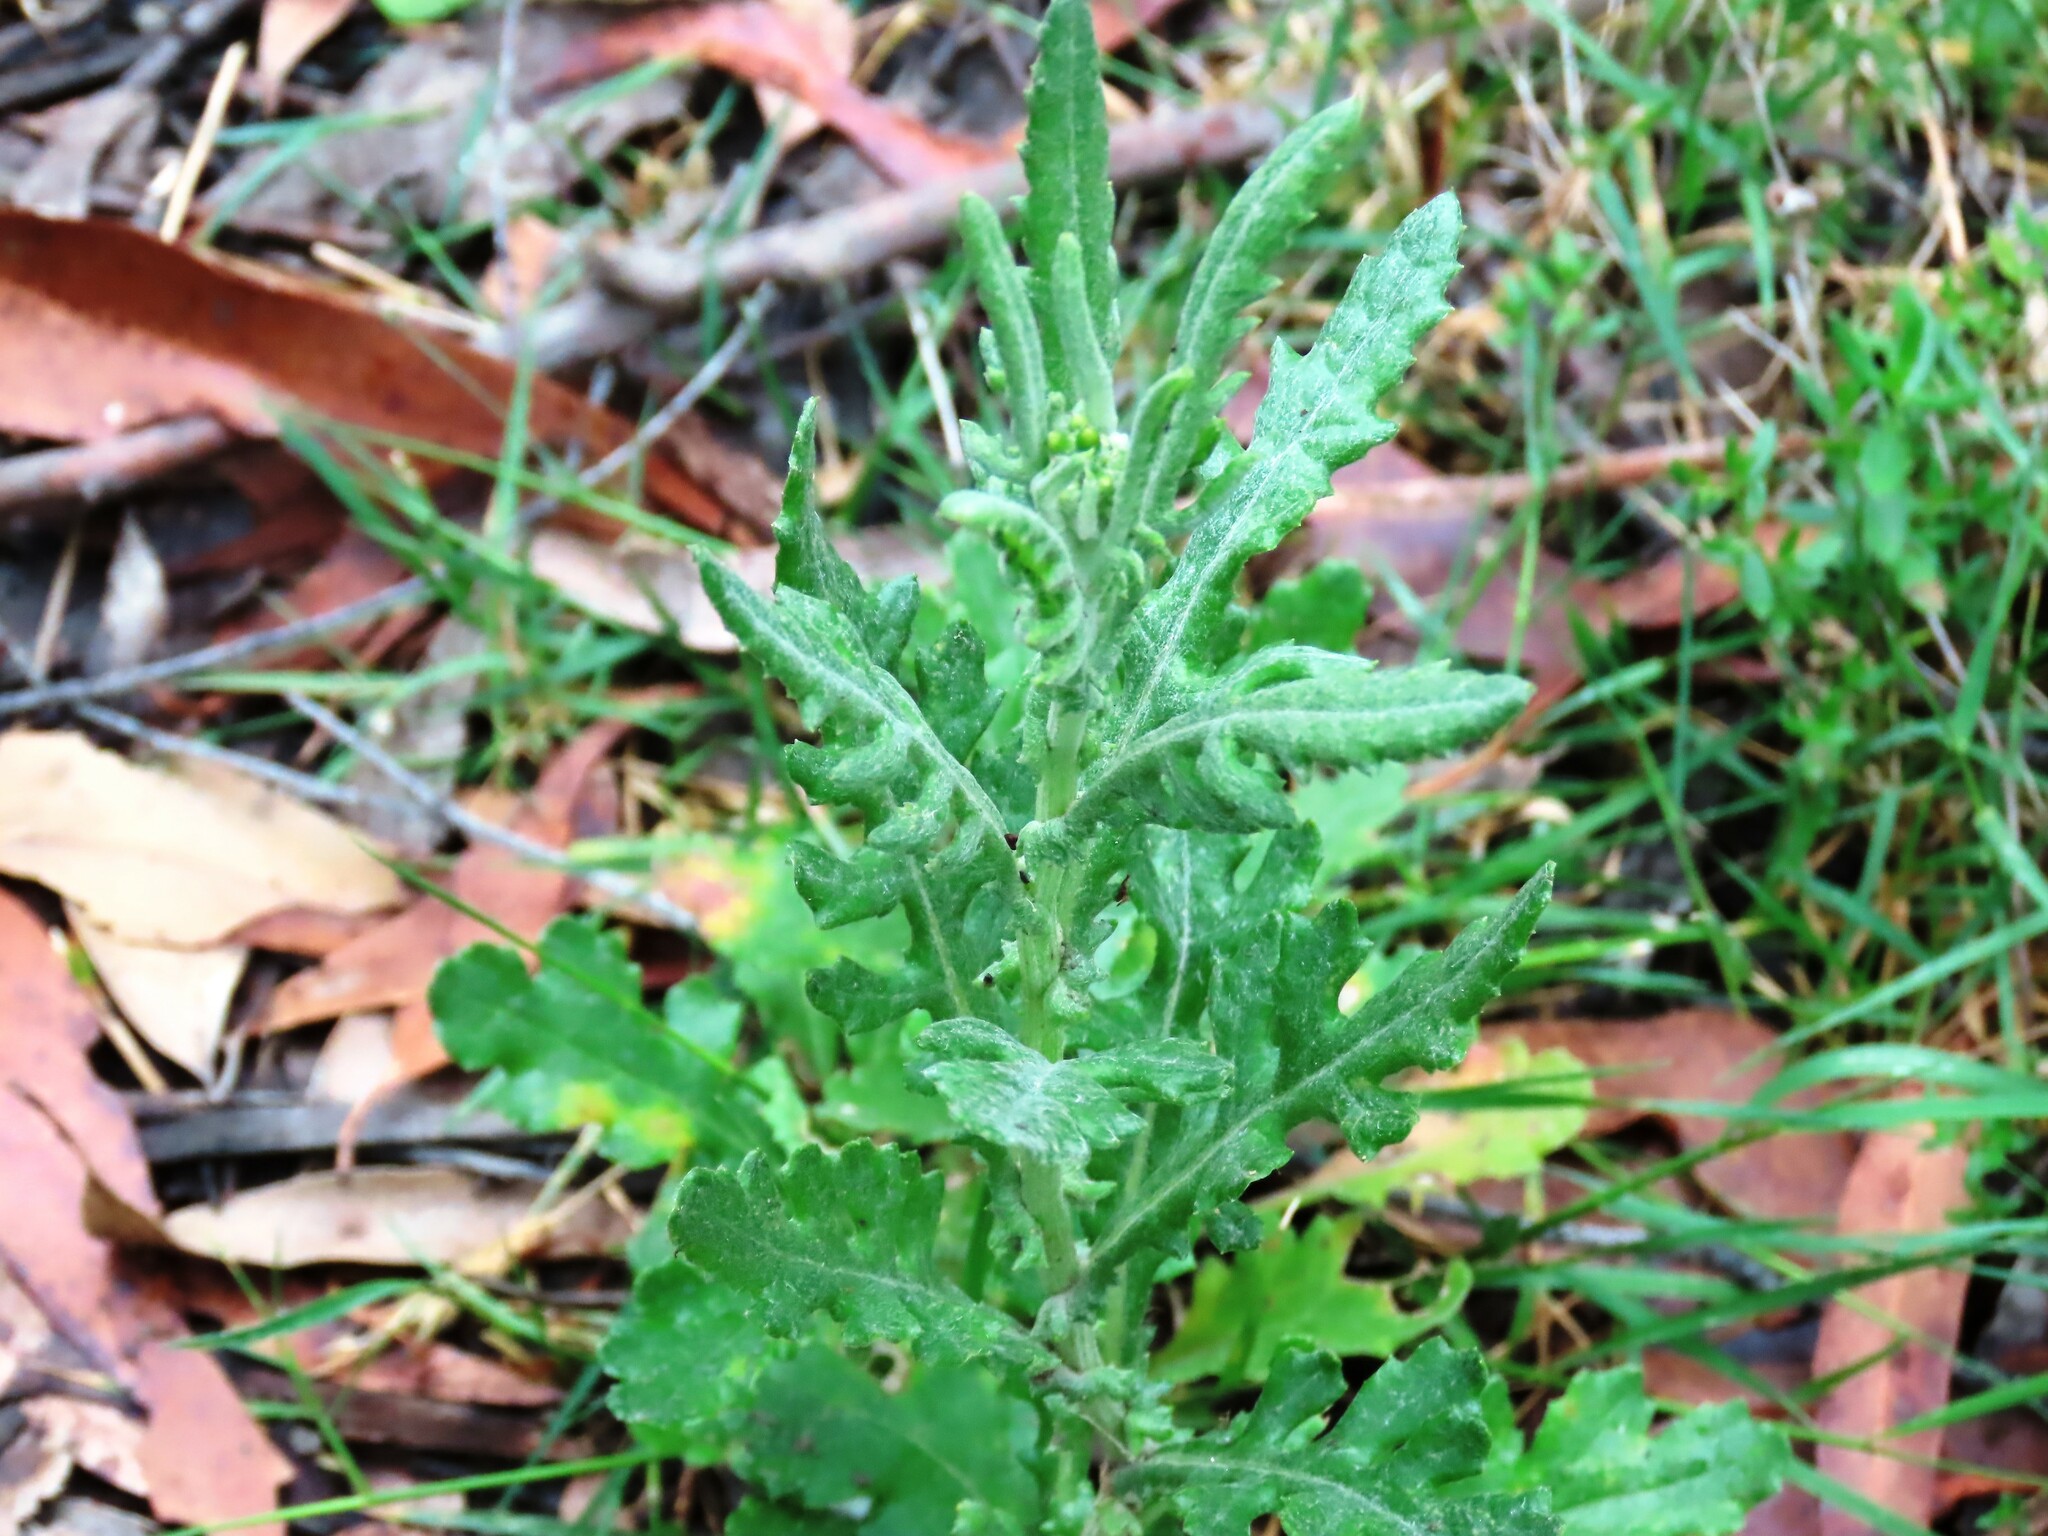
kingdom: Plantae
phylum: Tracheophyta
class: Magnoliopsida
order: Asterales
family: Asteraceae
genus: Senecio
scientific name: Senecio glomeratus
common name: Cutleaf burnweed
